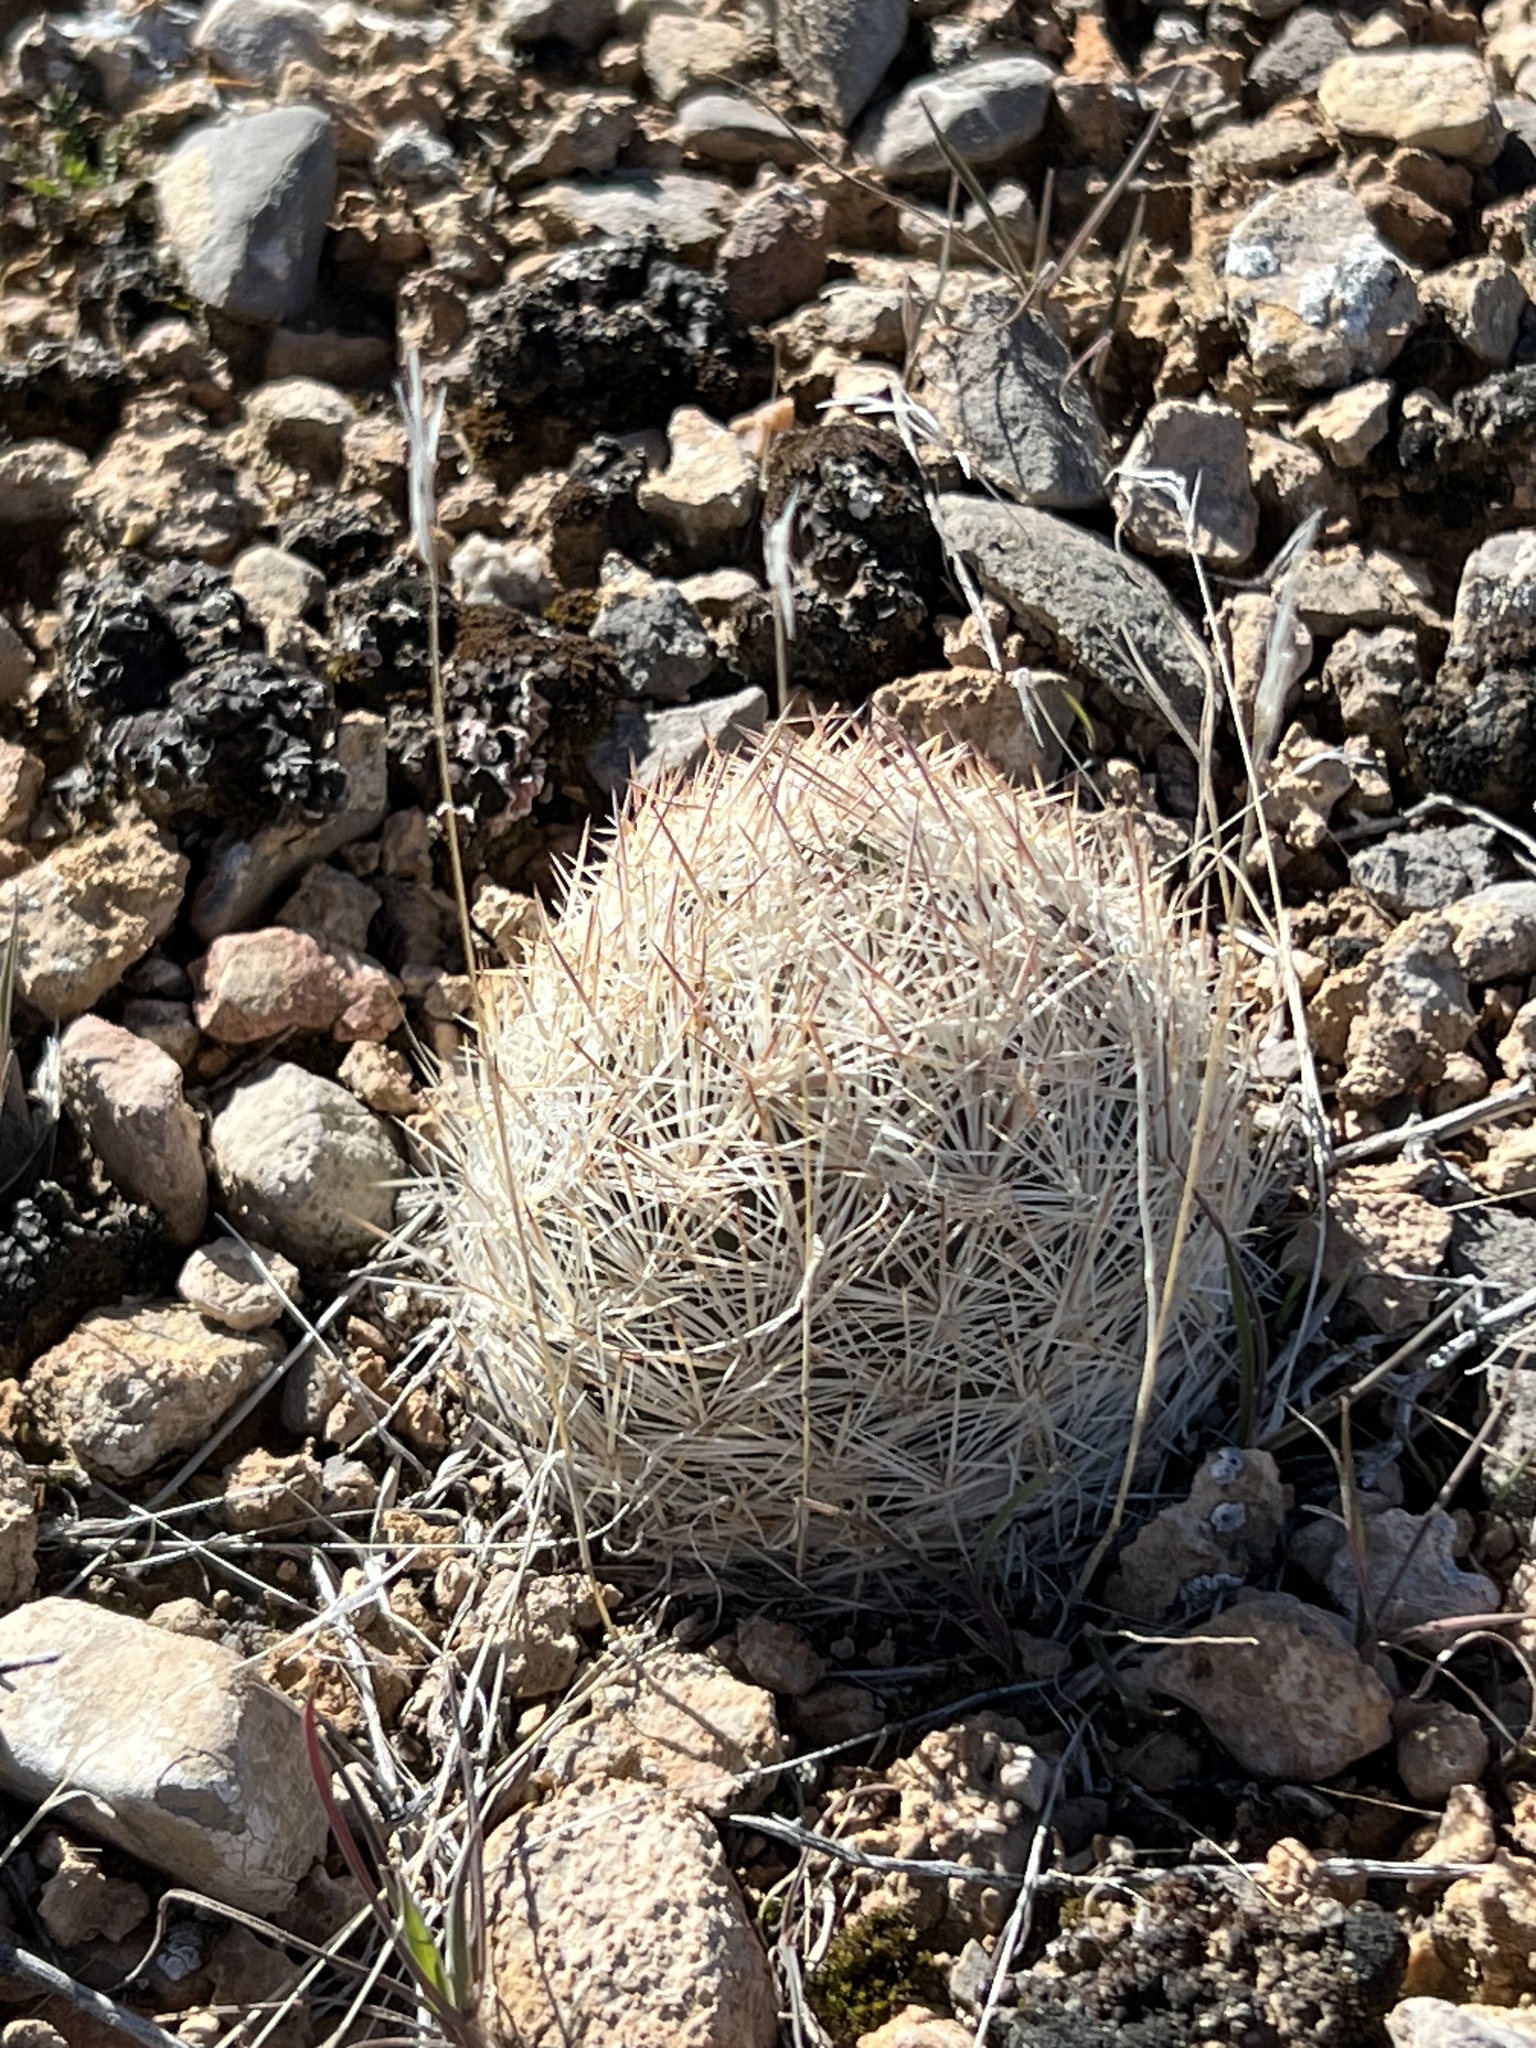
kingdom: Plantae
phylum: Tracheophyta
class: Magnoliopsida
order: Caryophyllales
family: Cactaceae
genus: Pelecyphora
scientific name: Pelecyphora dasyacantha
